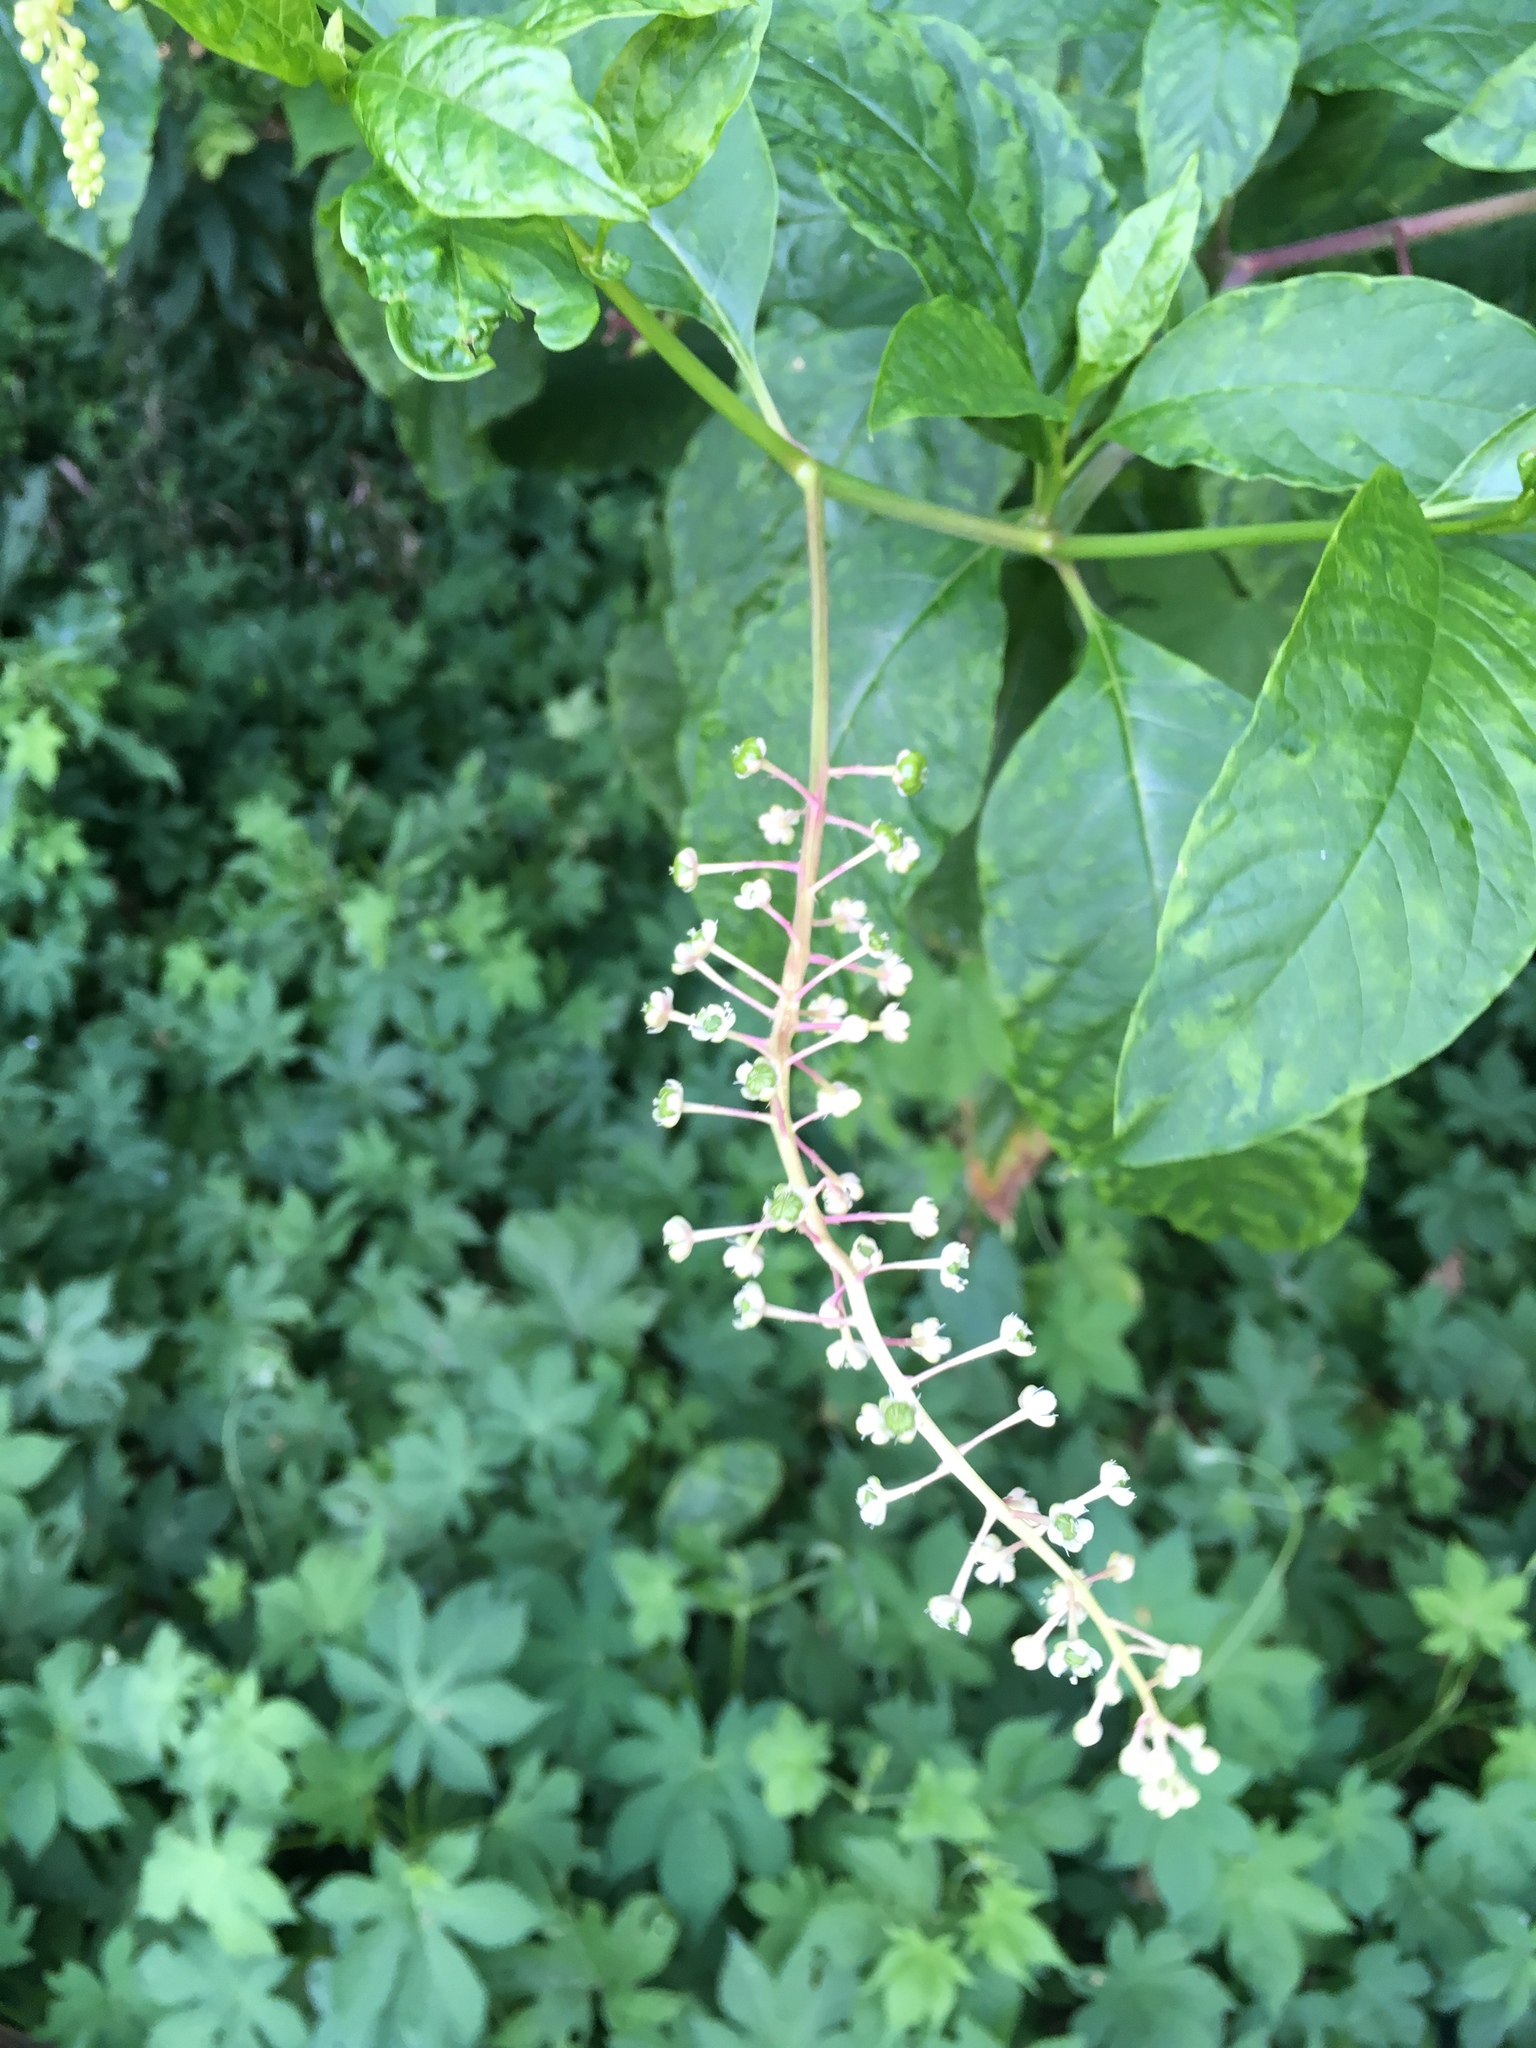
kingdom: Plantae
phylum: Tracheophyta
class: Magnoliopsida
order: Caryophyllales
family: Phytolaccaceae
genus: Phytolacca
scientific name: Phytolacca americana
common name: American pokeweed
